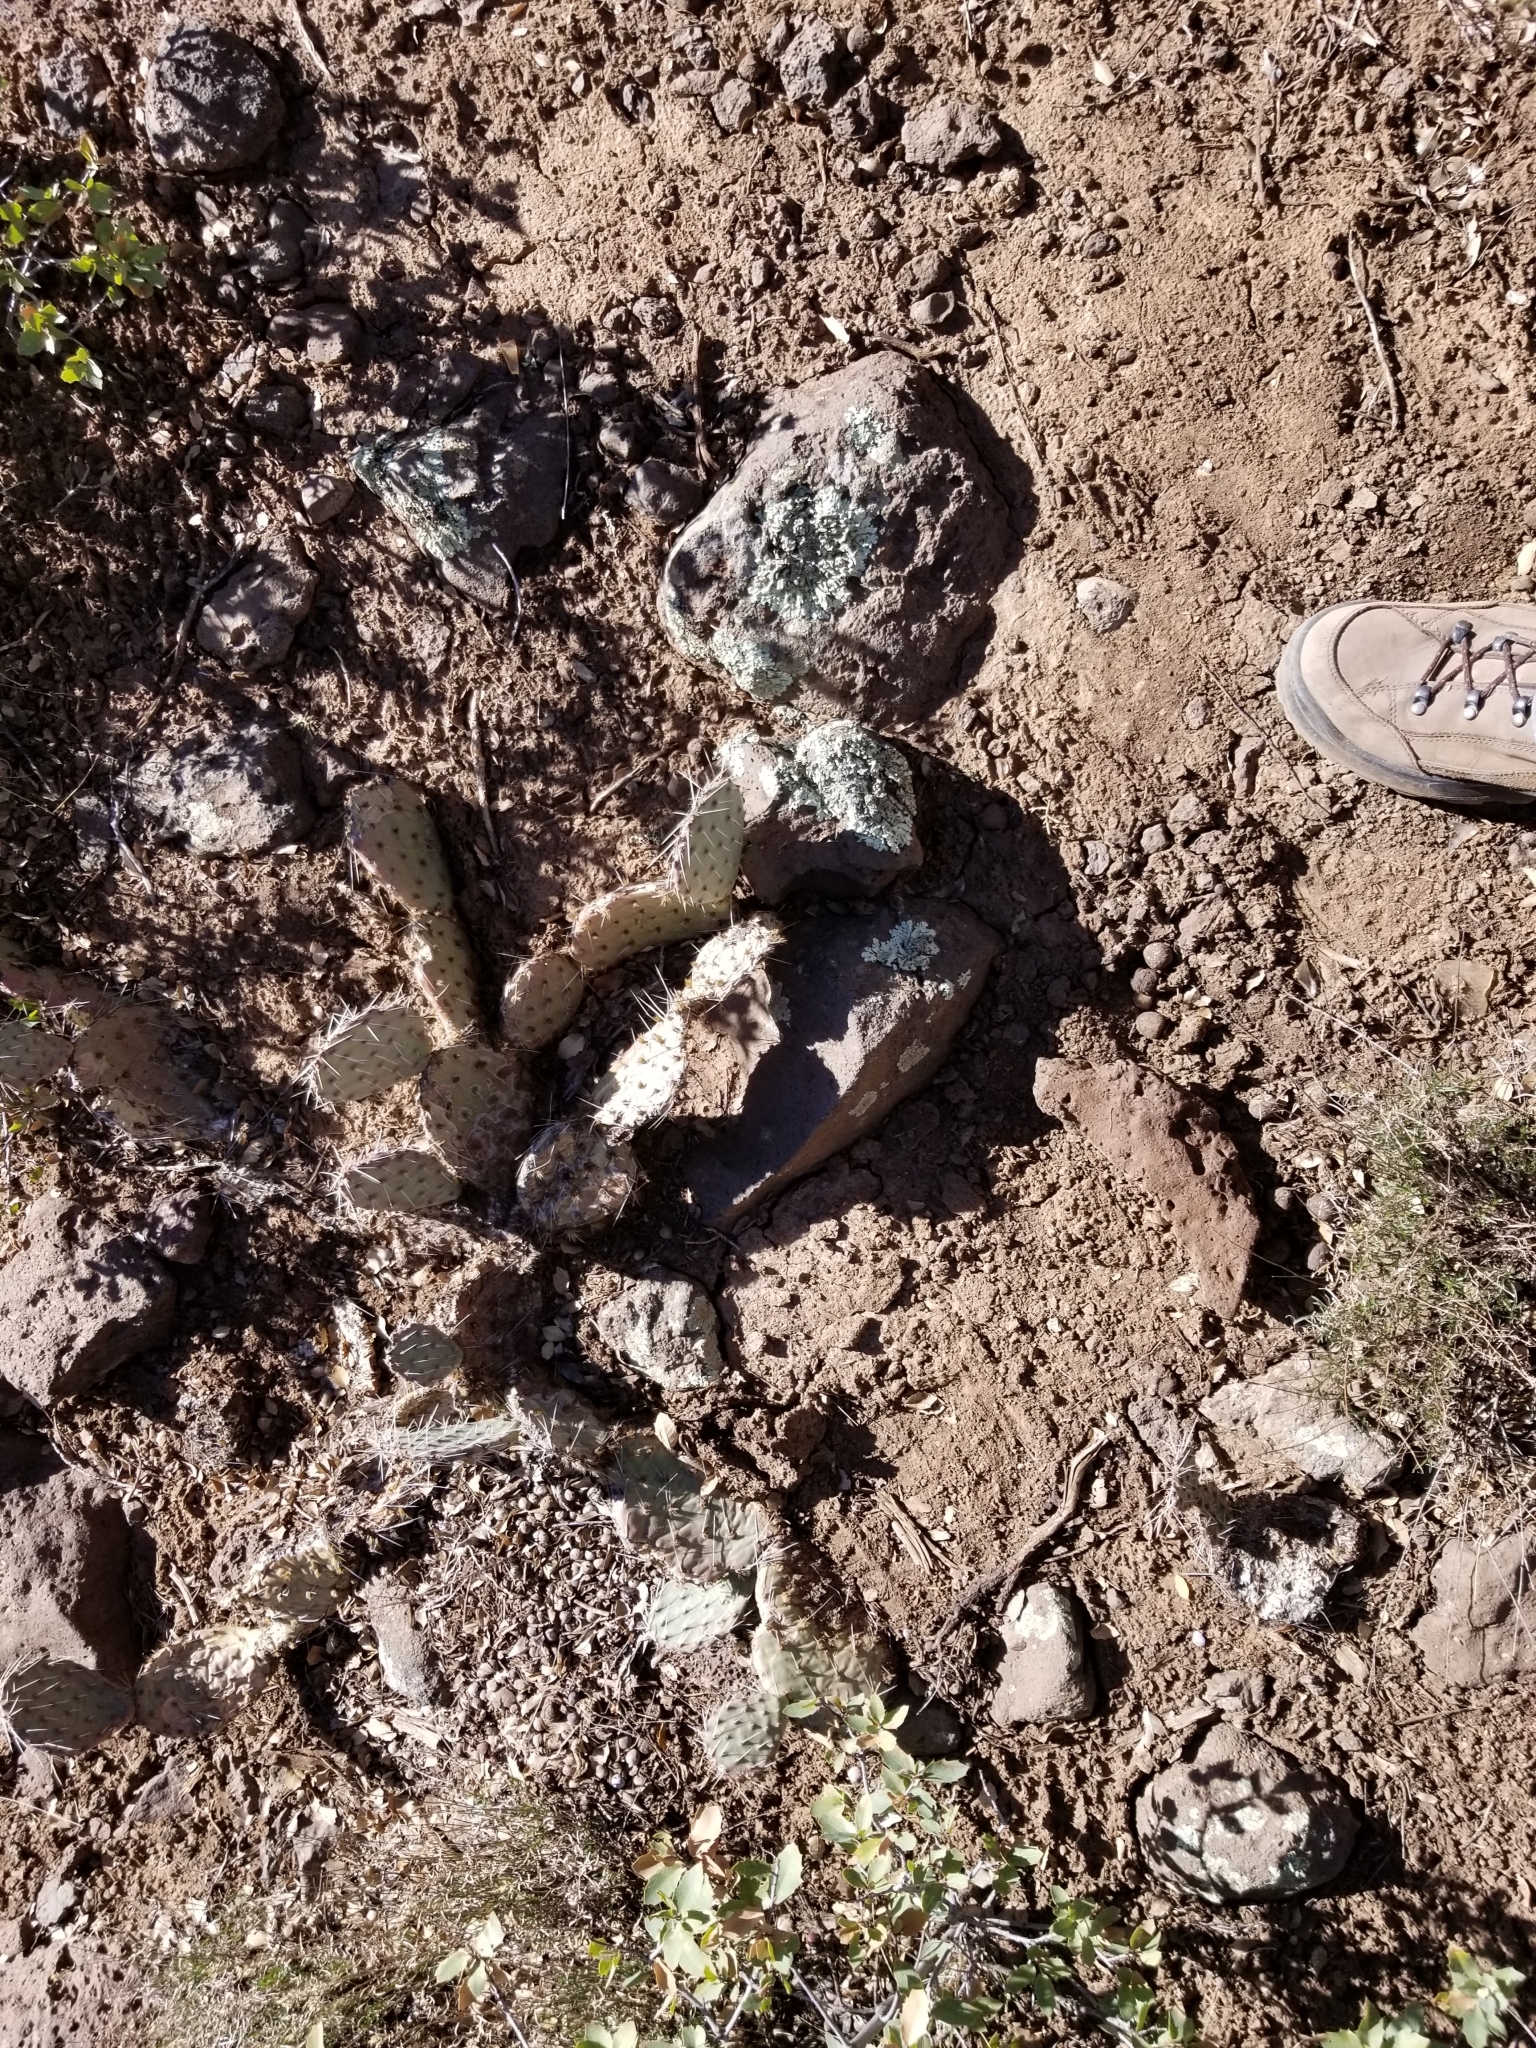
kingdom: Plantae
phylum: Tracheophyta
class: Magnoliopsida
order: Caryophyllales
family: Cactaceae
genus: Opuntia
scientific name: Opuntia phaeacantha
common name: New mexico prickly-pear
